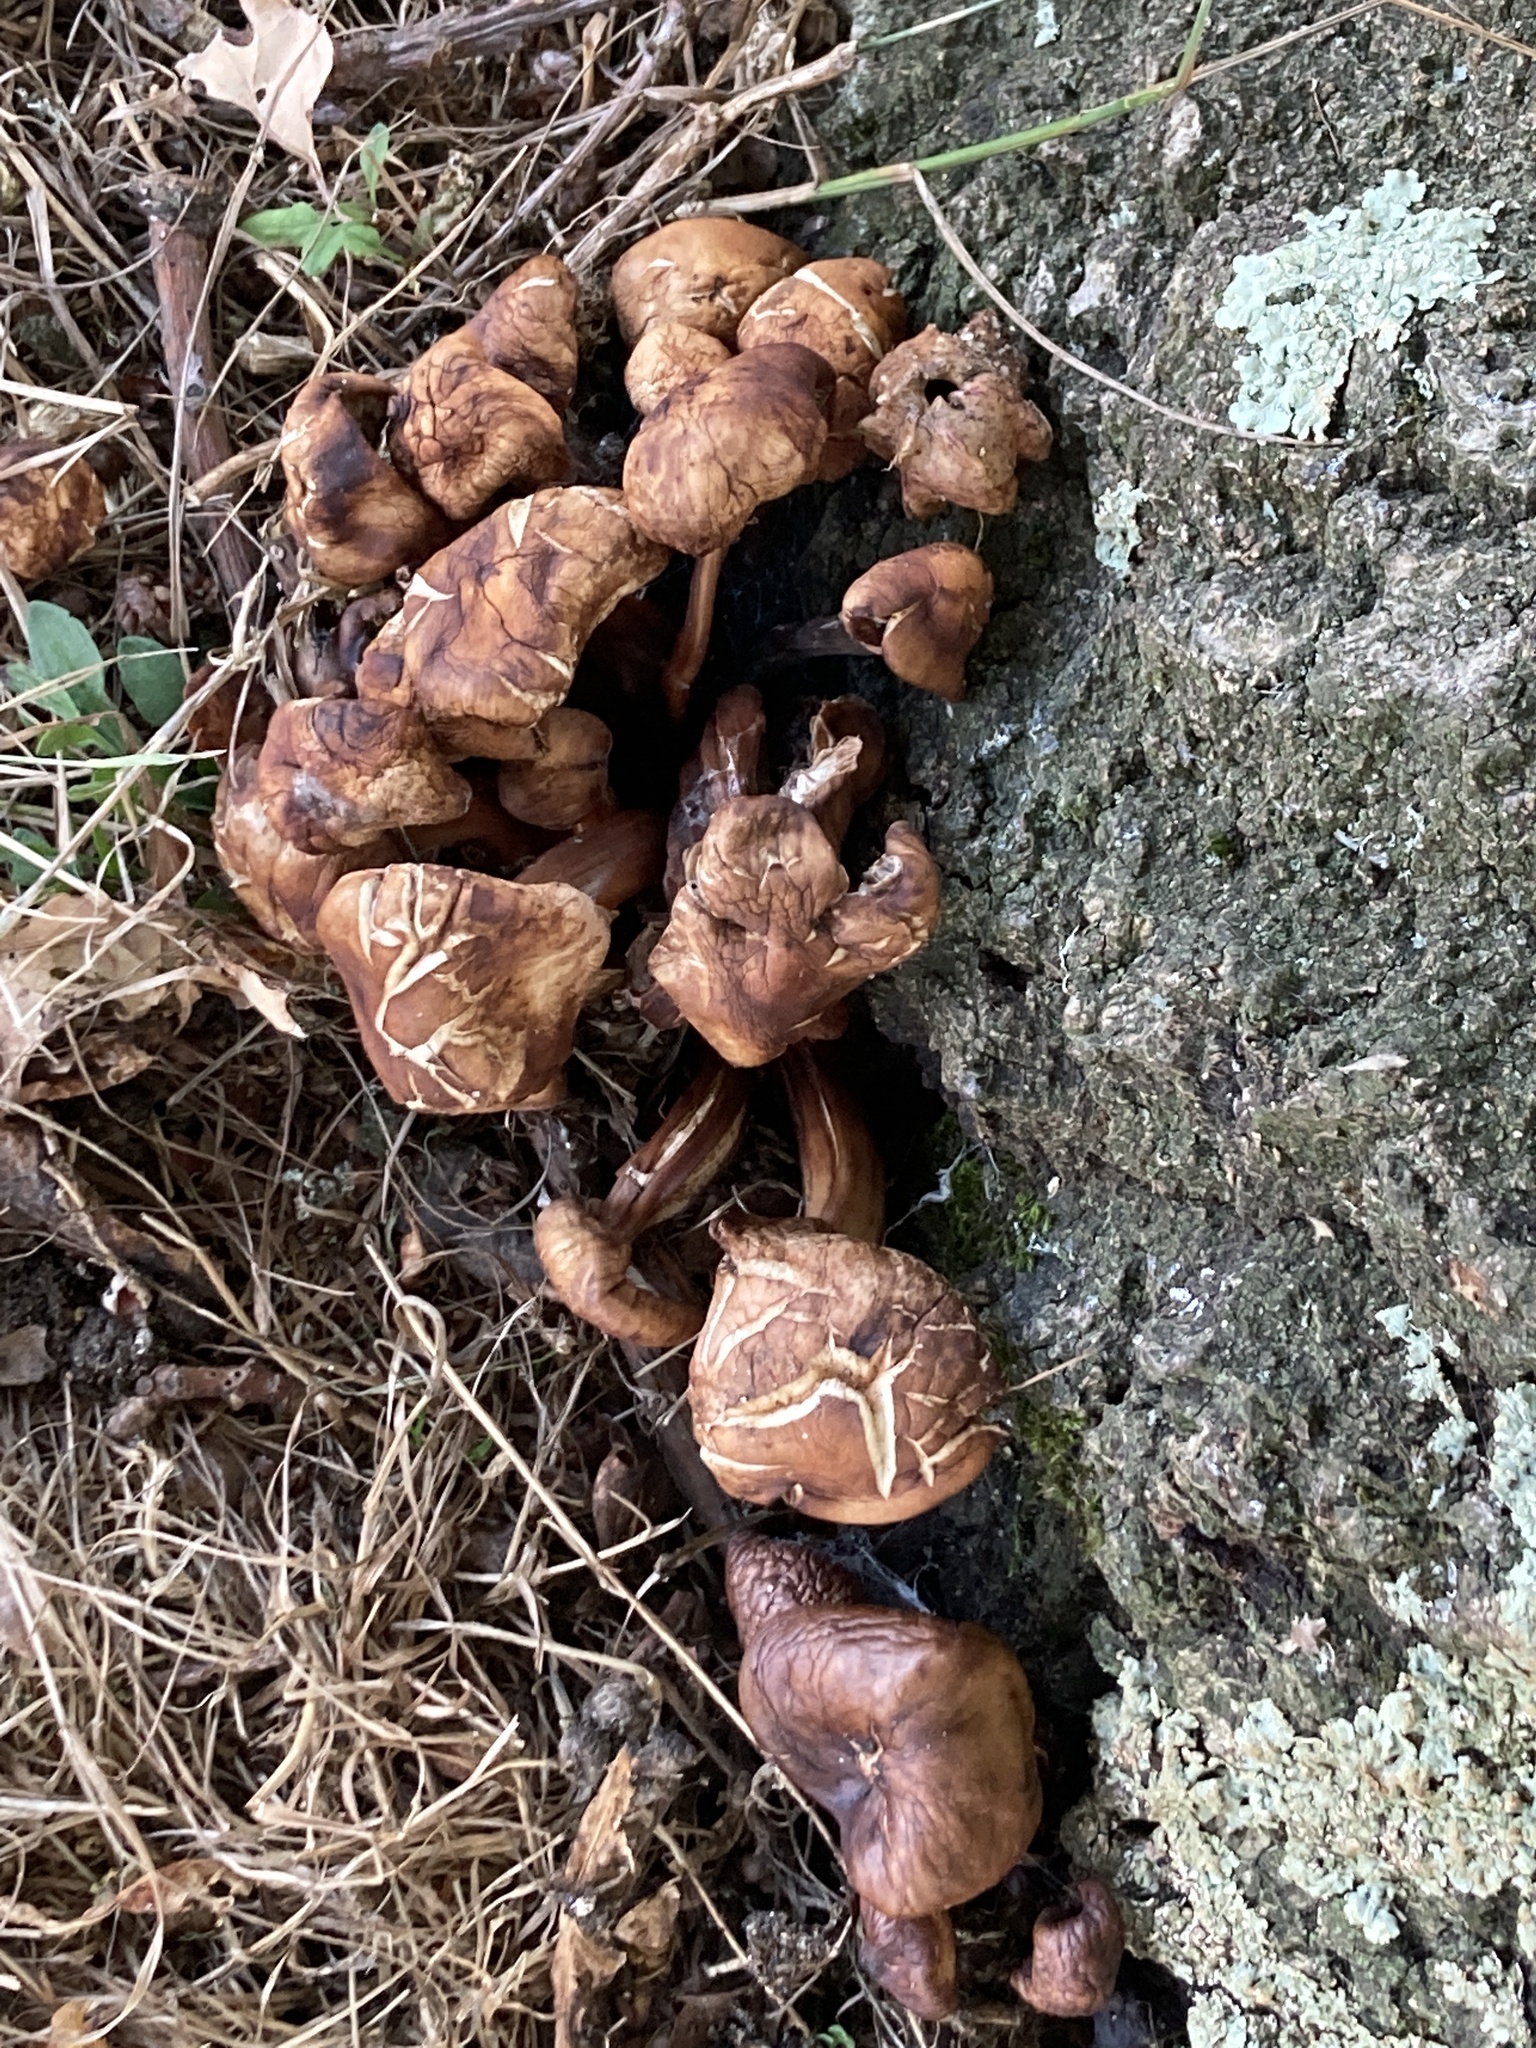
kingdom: Fungi
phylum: Basidiomycota
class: Agaricomycetes
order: Agaricales
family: Omphalotaceae
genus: Gymnopus
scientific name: Gymnopus fusipes
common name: Spindle shank
